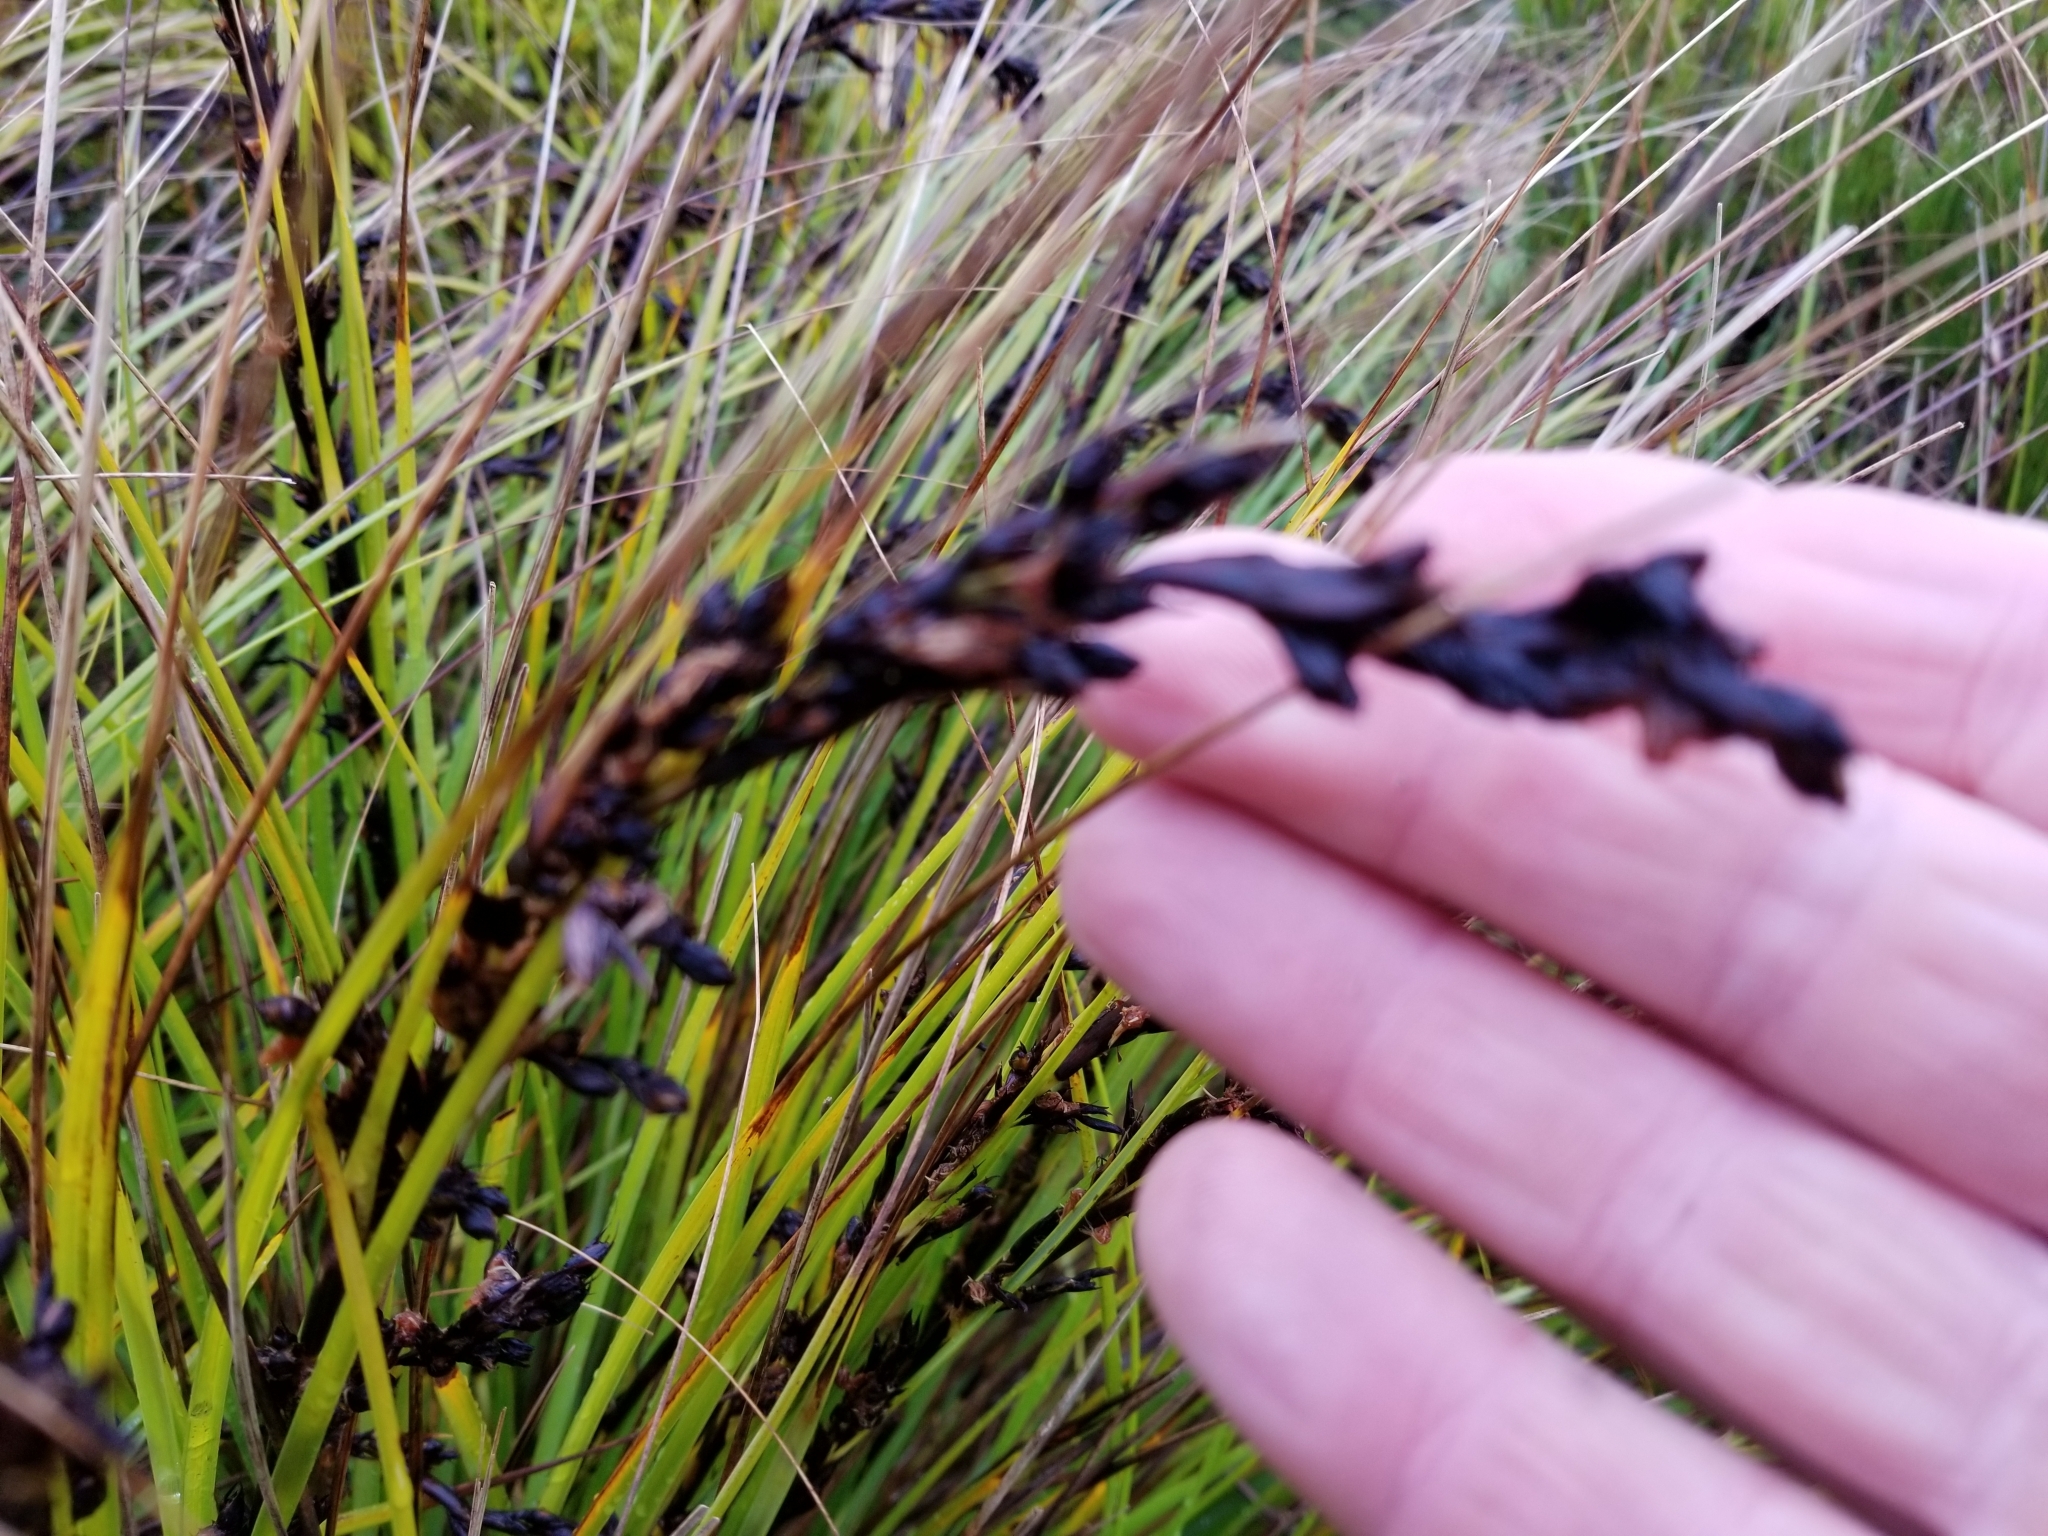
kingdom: Plantae
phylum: Tracheophyta
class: Liliopsida
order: Poales
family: Cyperaceae
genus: Gahnia
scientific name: Gahnia procera
